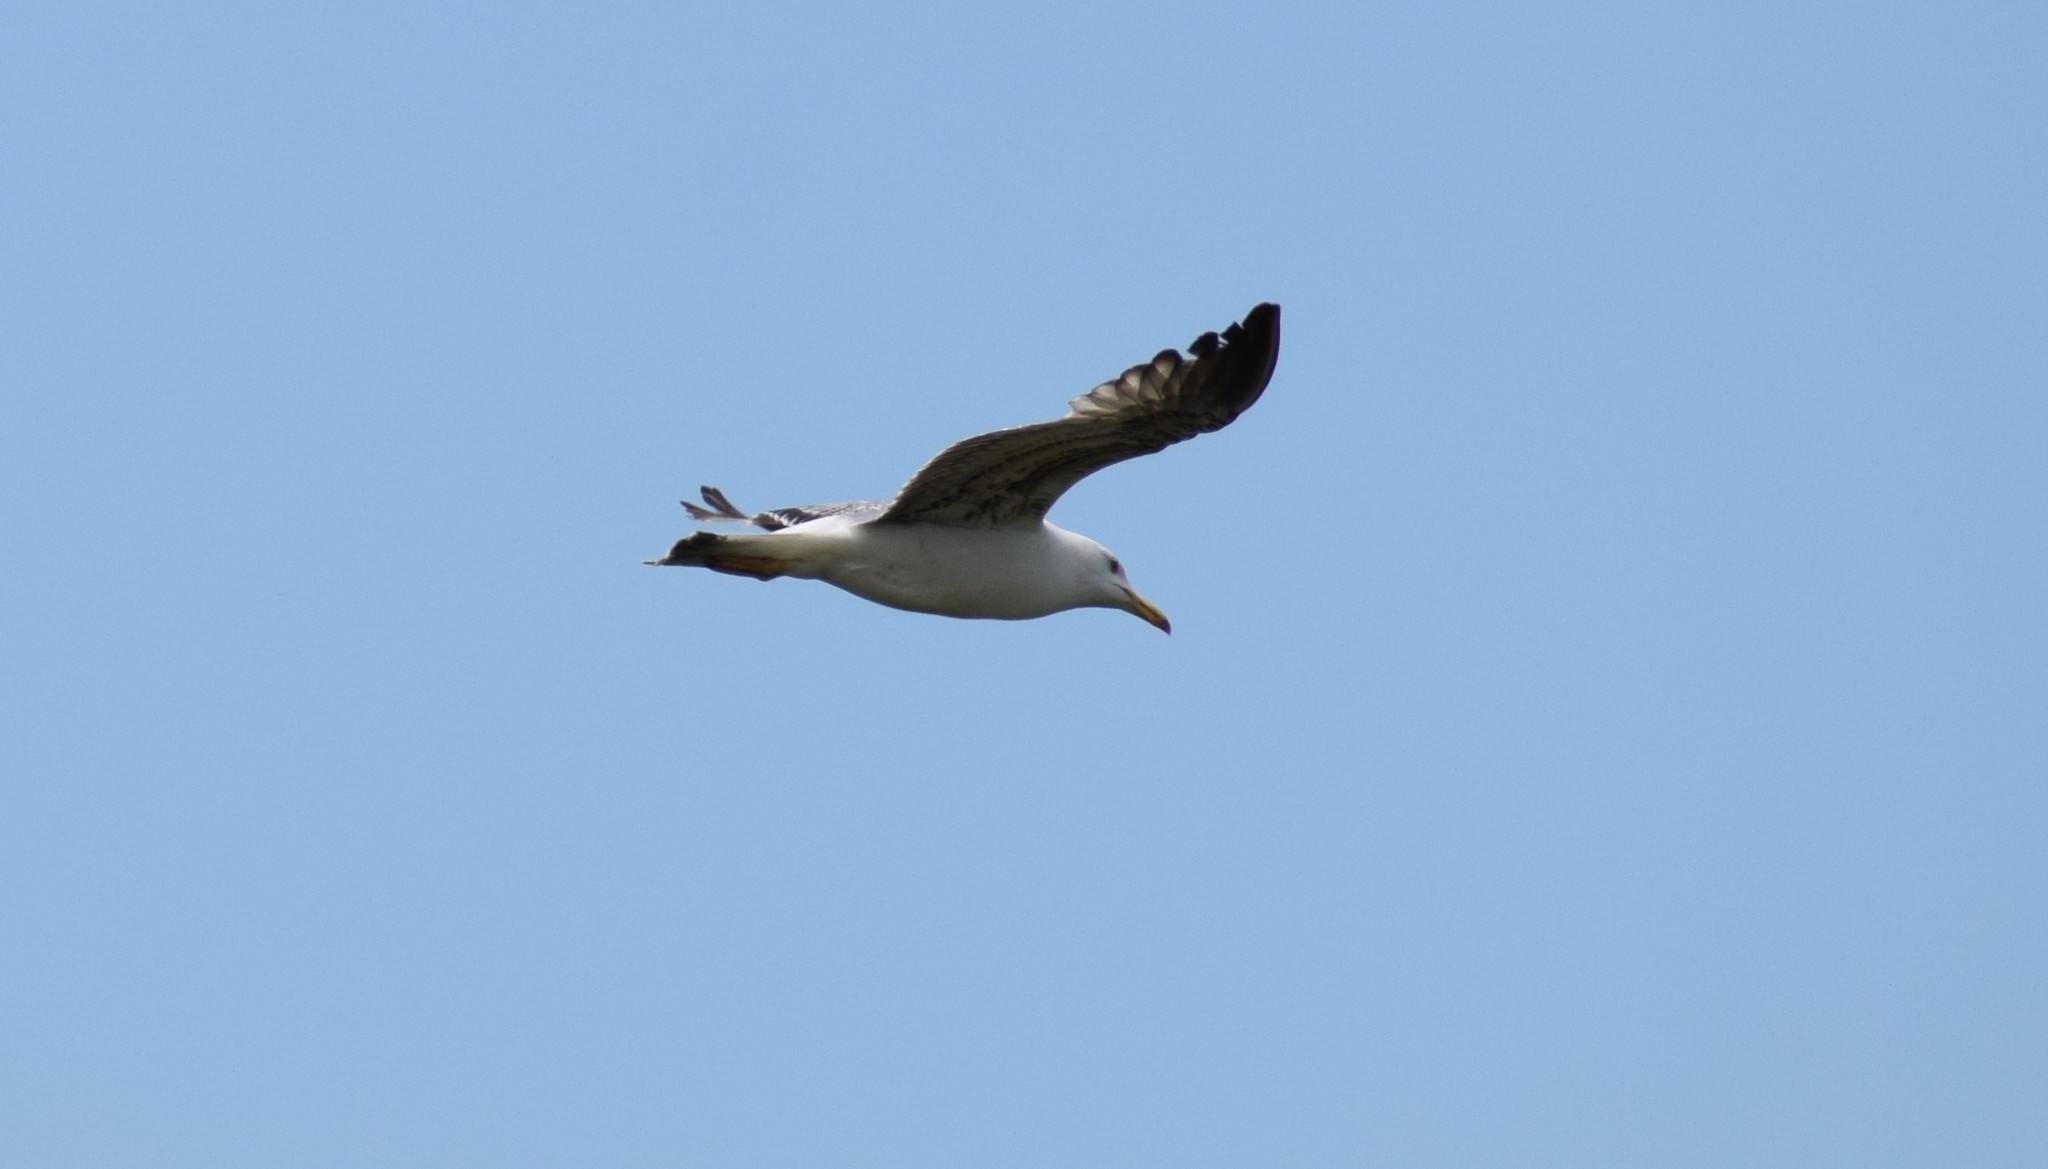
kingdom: Animalia
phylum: Chordata
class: Aves
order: Charadriiformes
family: Laridae
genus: Larus
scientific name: Larus michahellis
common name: Yellow-legged gull
